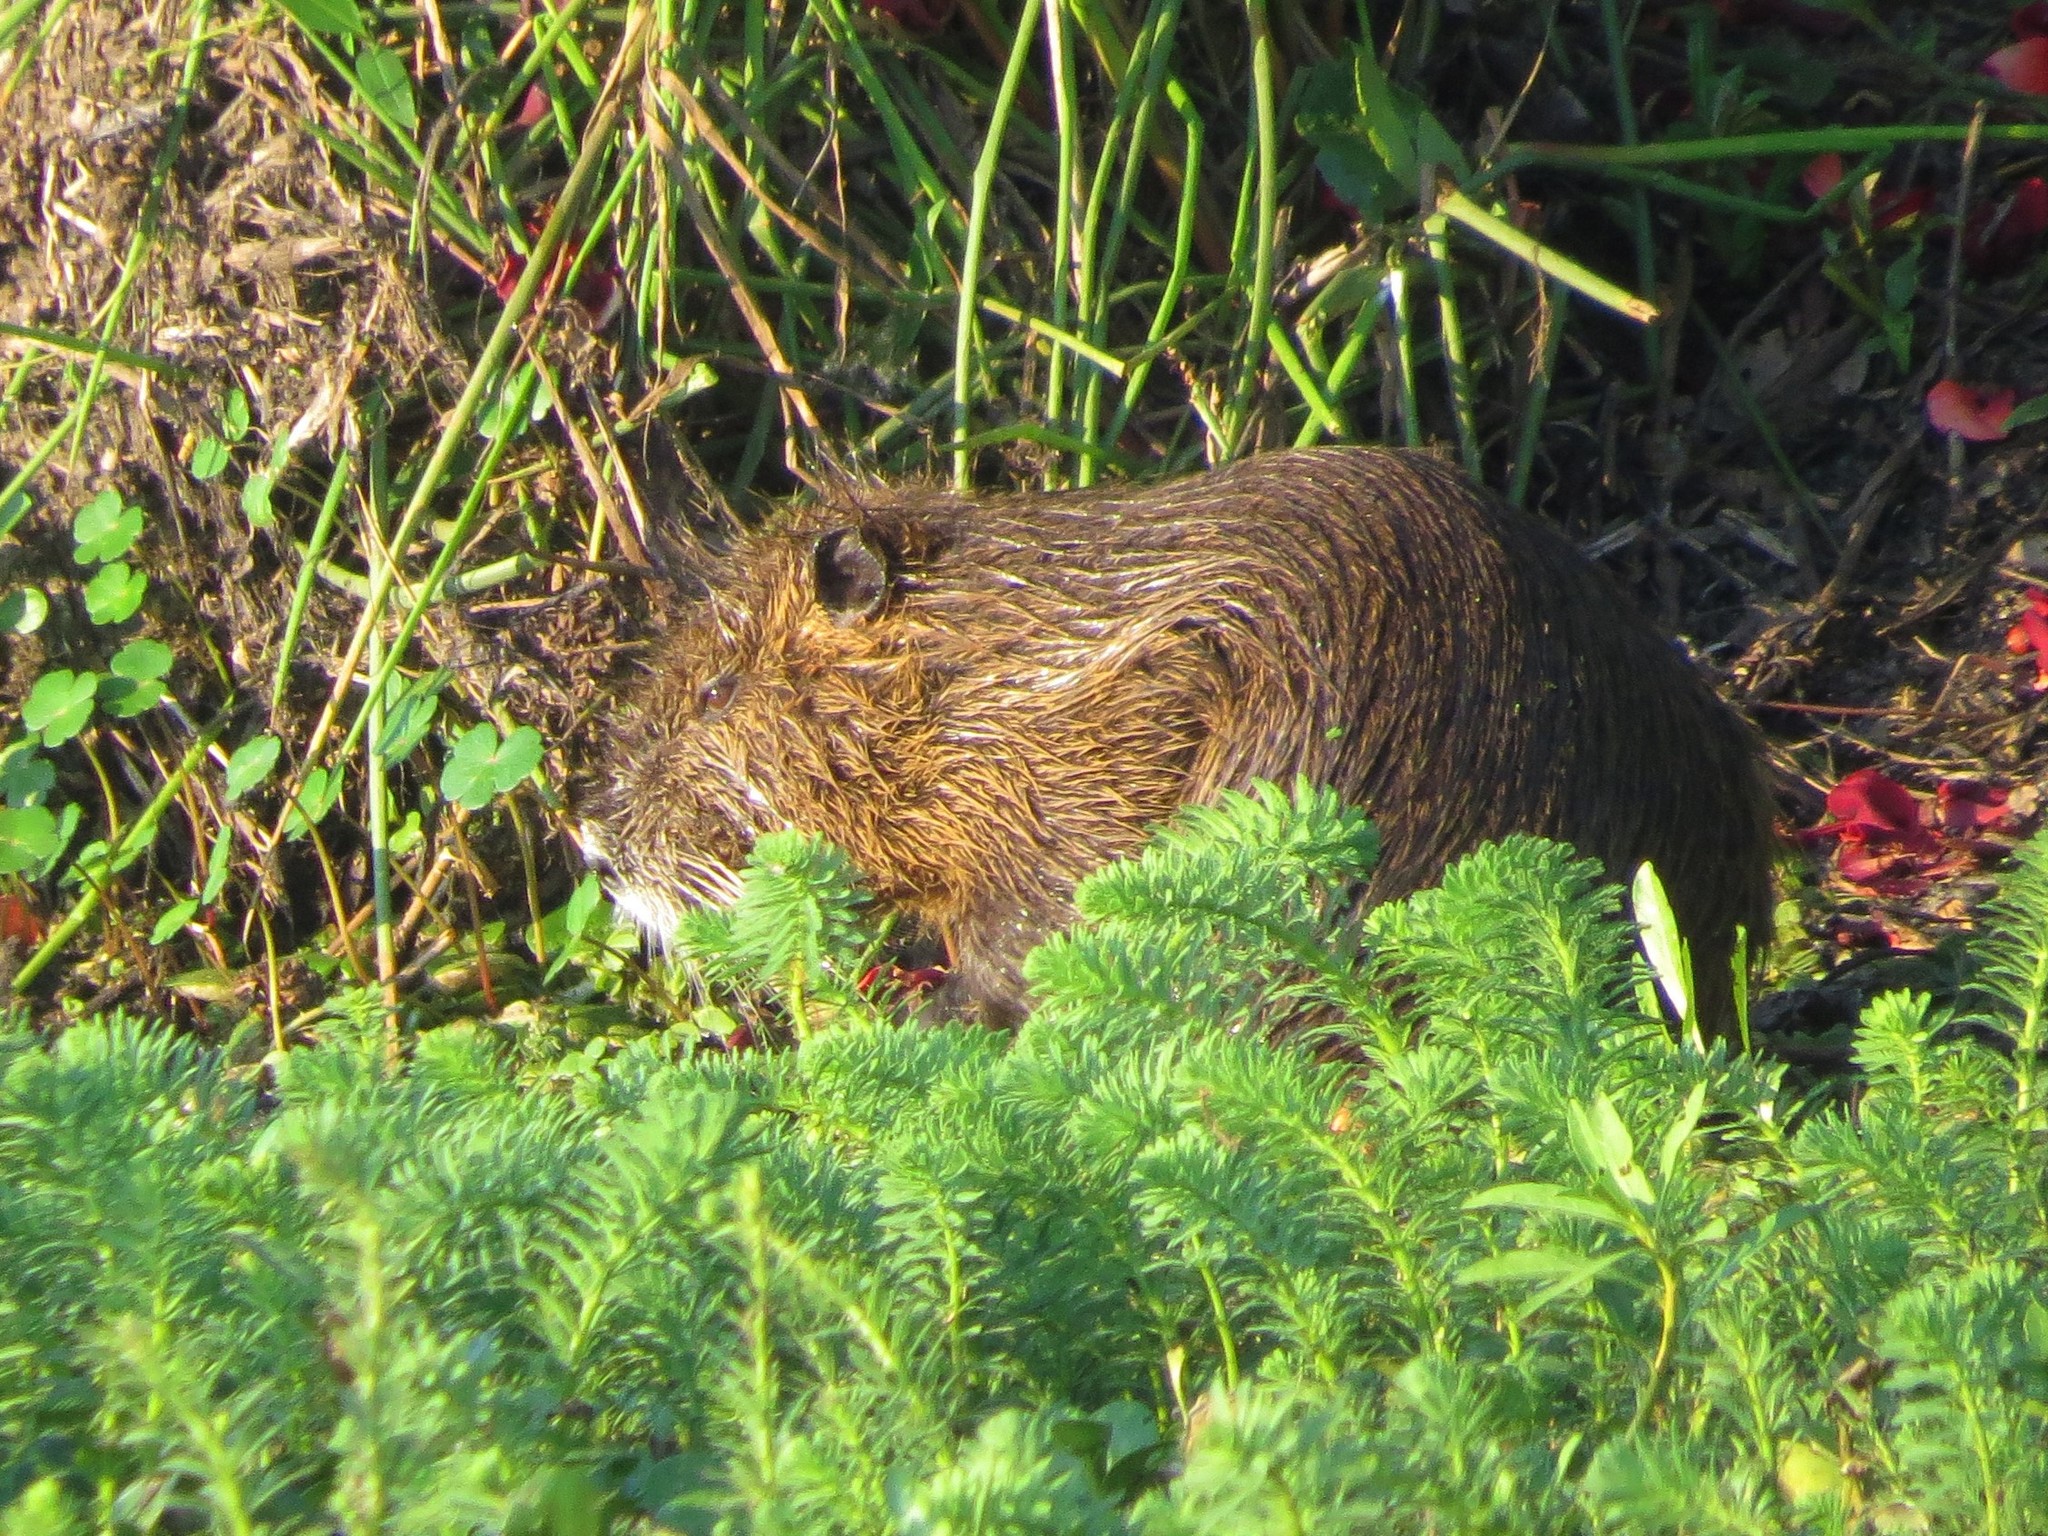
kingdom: Animalia
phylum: Chordata
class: Mammalia
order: Rodentia
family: Myocastoridae
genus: Myocastor
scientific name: Myocastor coypus
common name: Coypu
